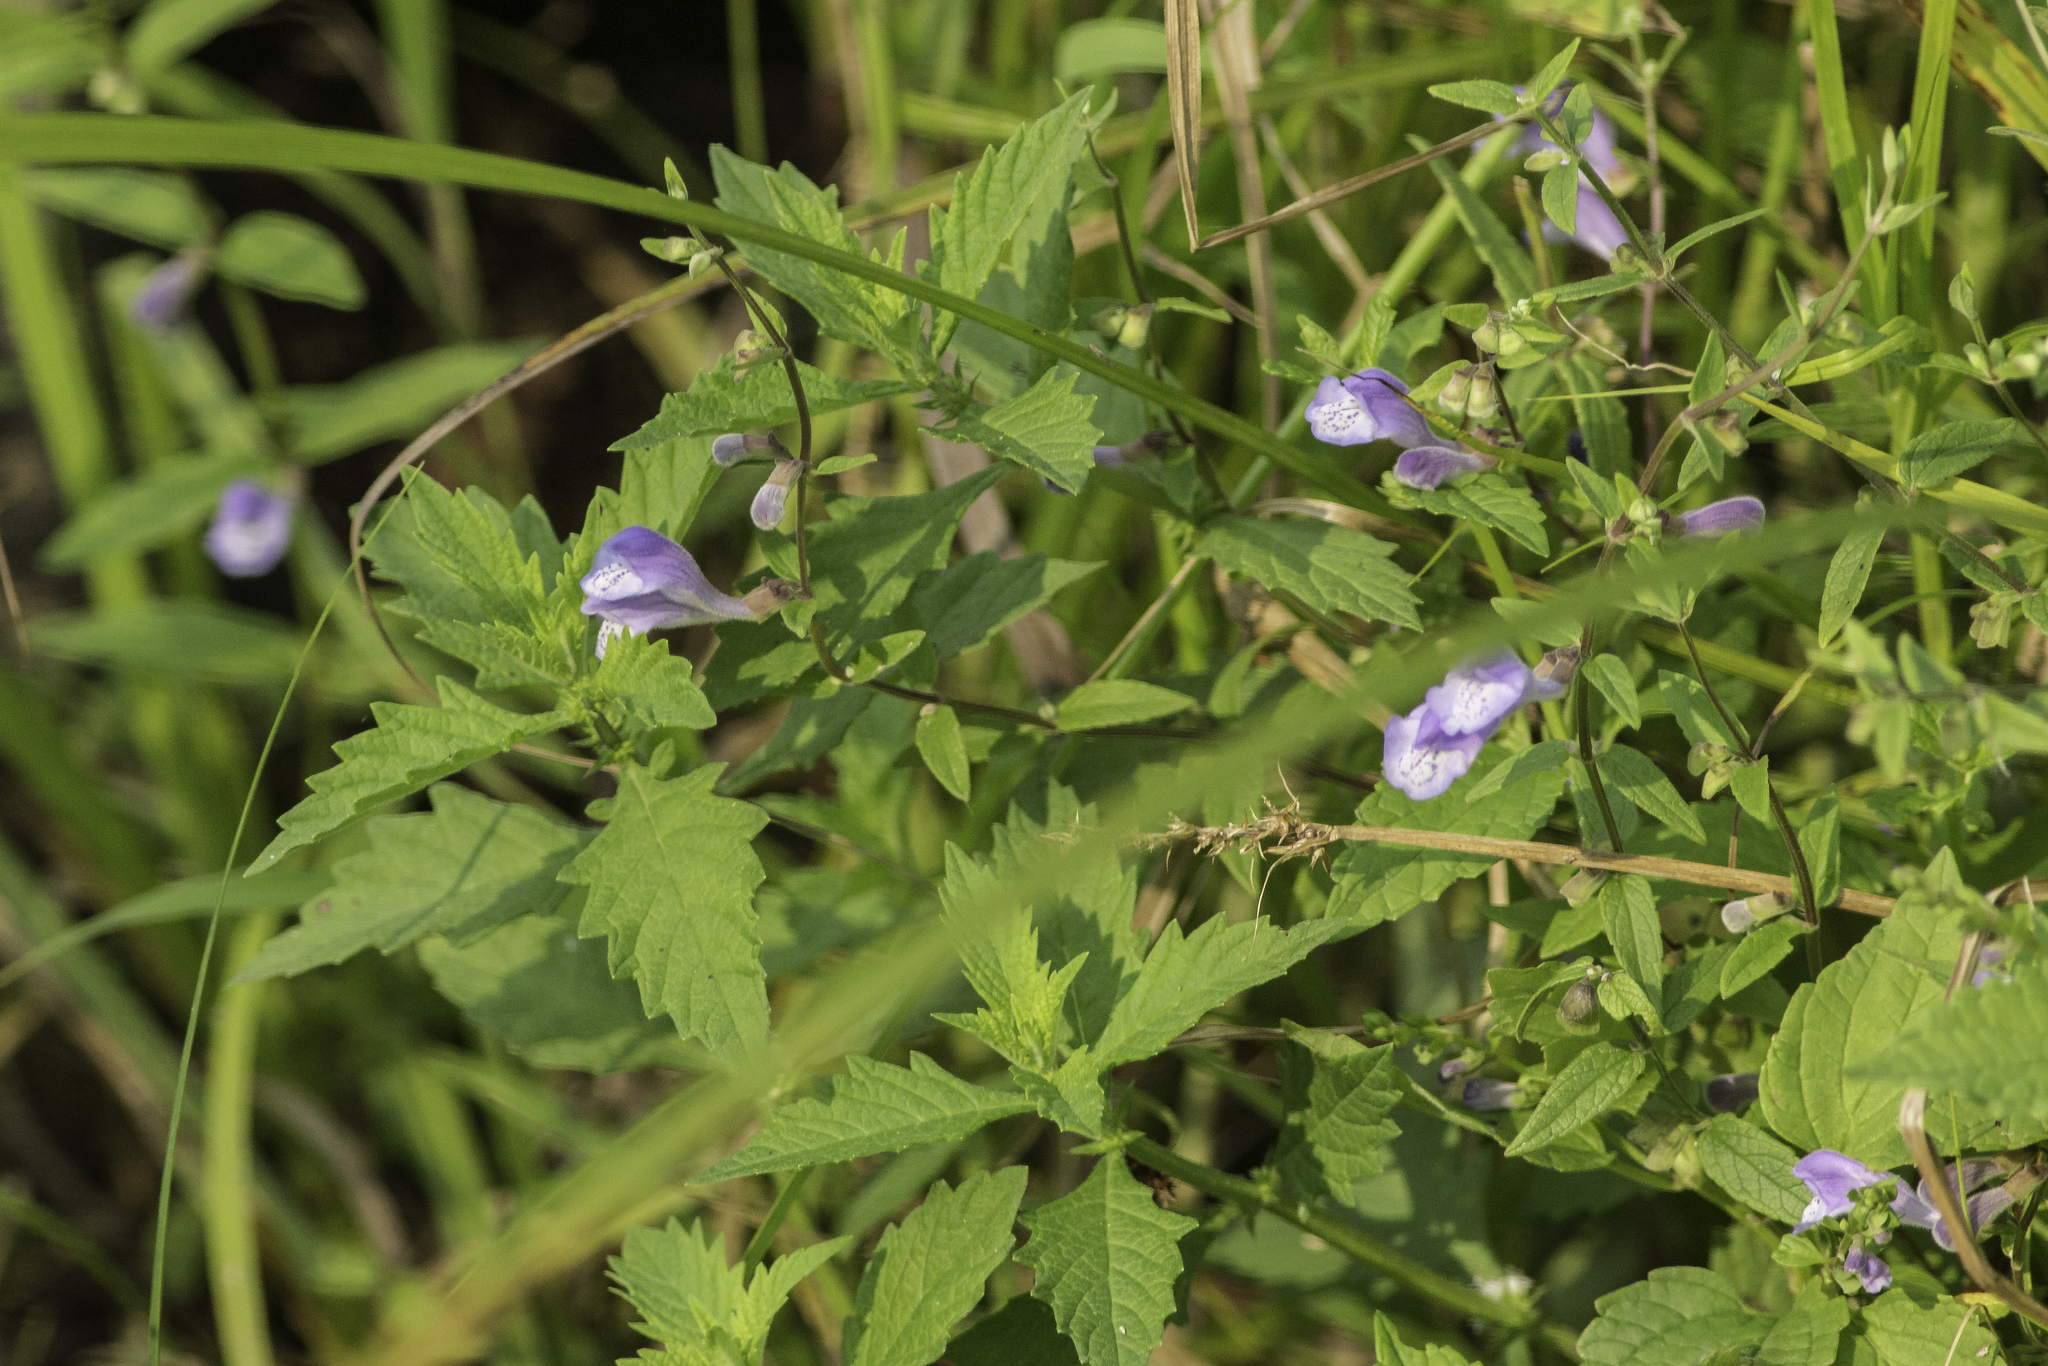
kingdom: Plantae
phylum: Tracheophyta
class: Magnoliopsida
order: Lamiales
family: Lamiaceae
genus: Scutellaria
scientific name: Scutellaria galericulata
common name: Skullcap
